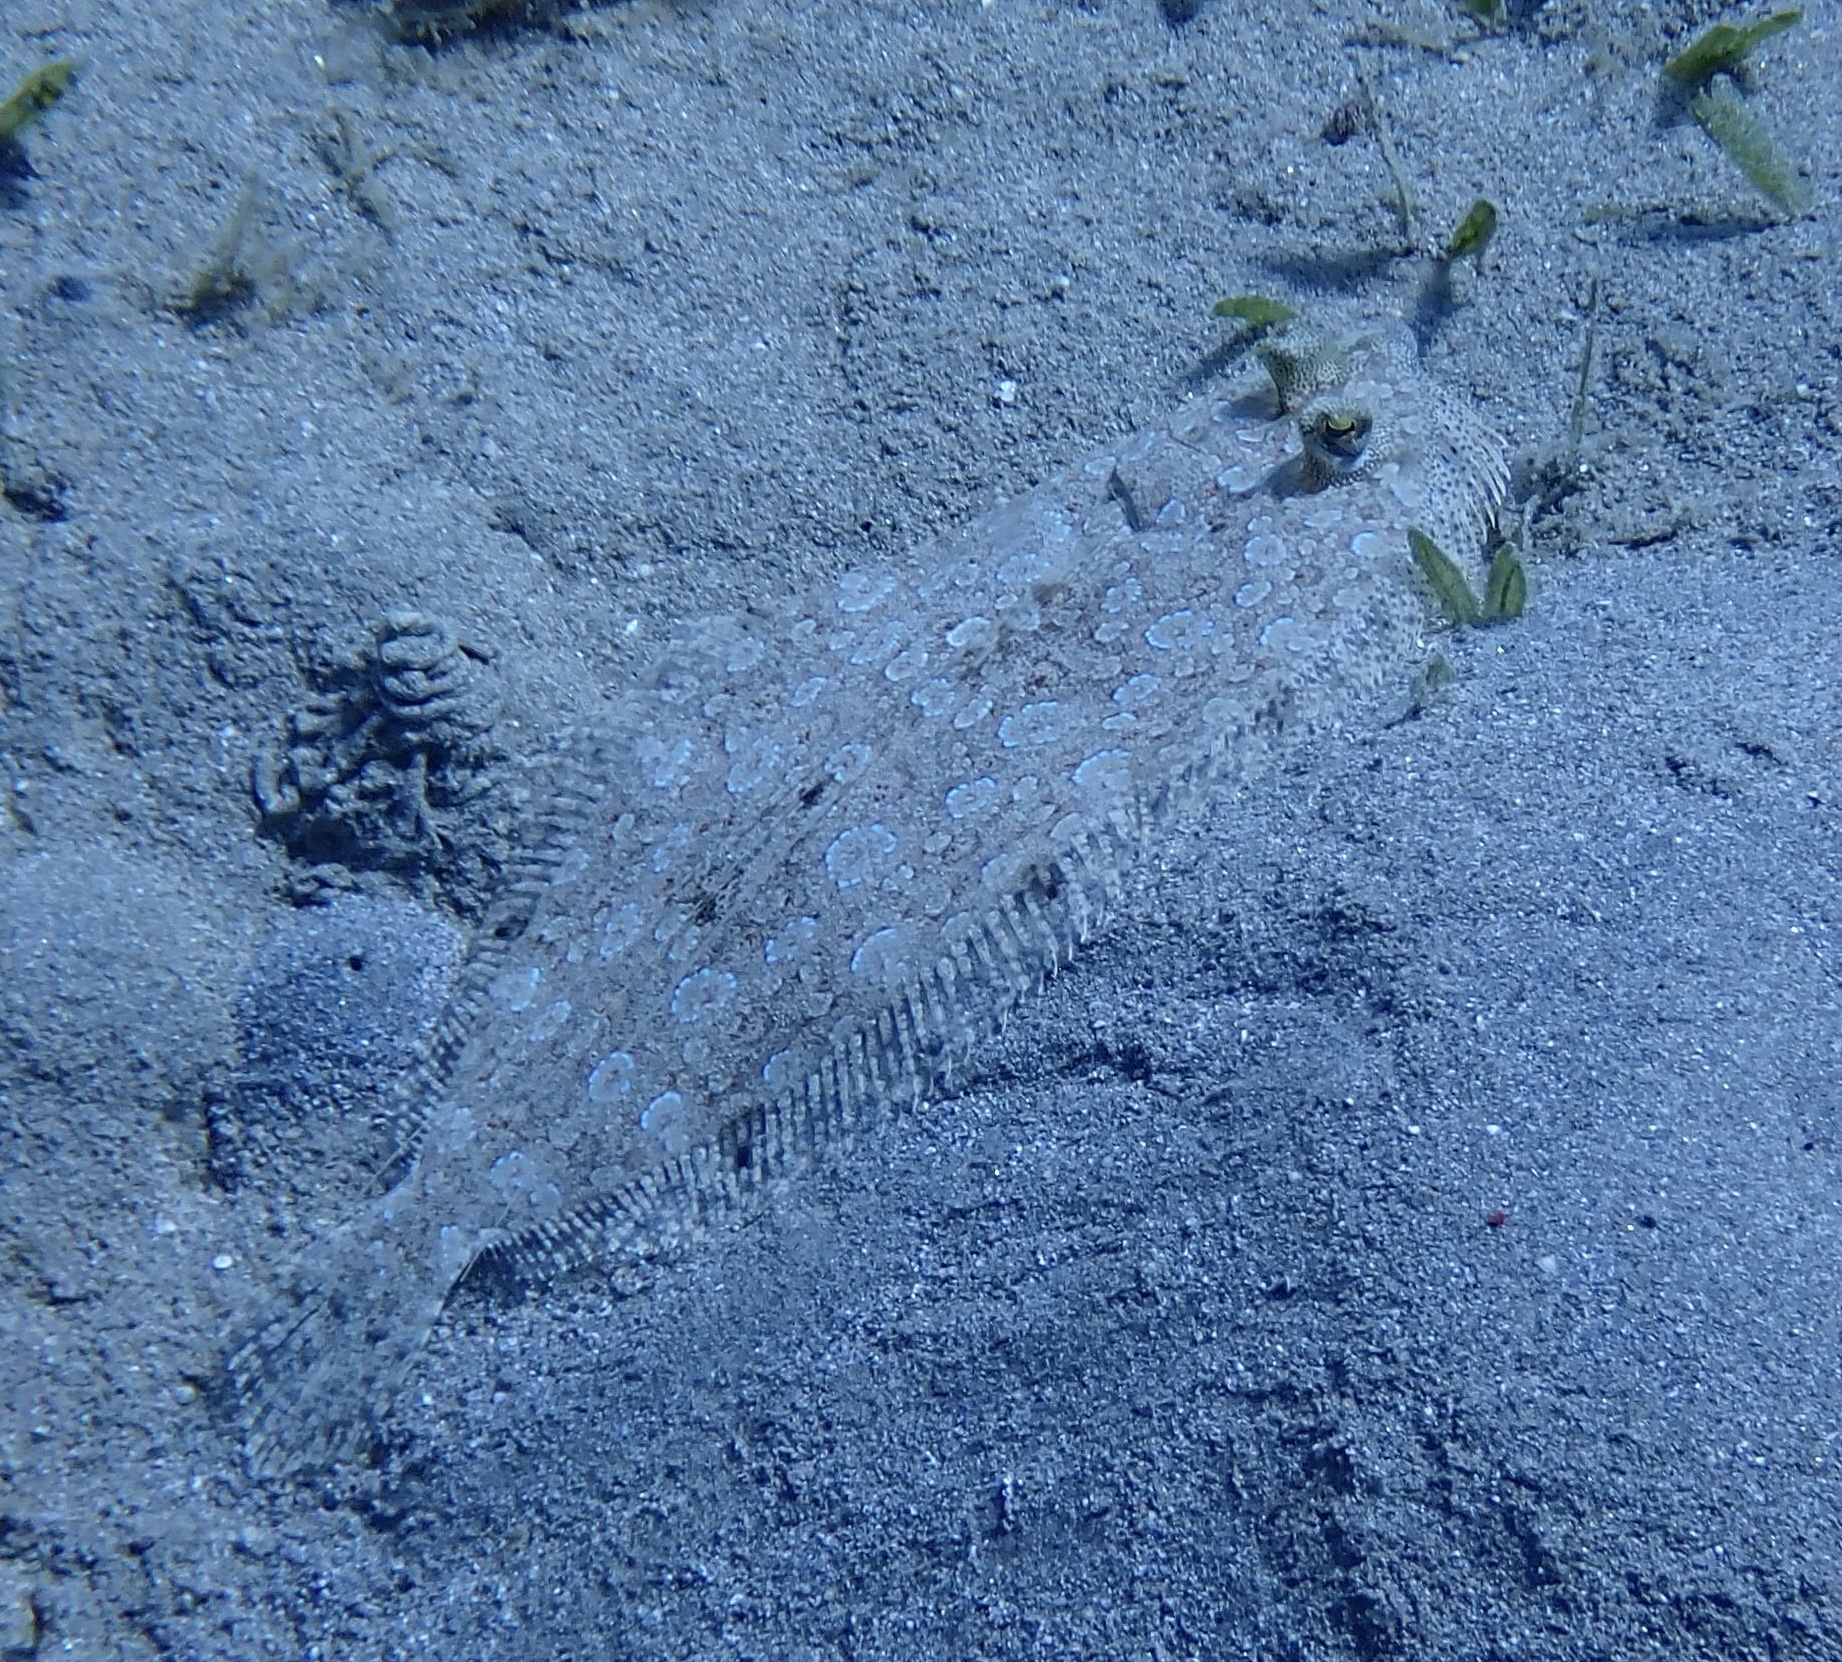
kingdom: Animalia
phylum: Chordata
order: Pleuronectiformes
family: Bothidae
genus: Bothus
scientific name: Bothus pantherinus
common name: Leopard flounder
